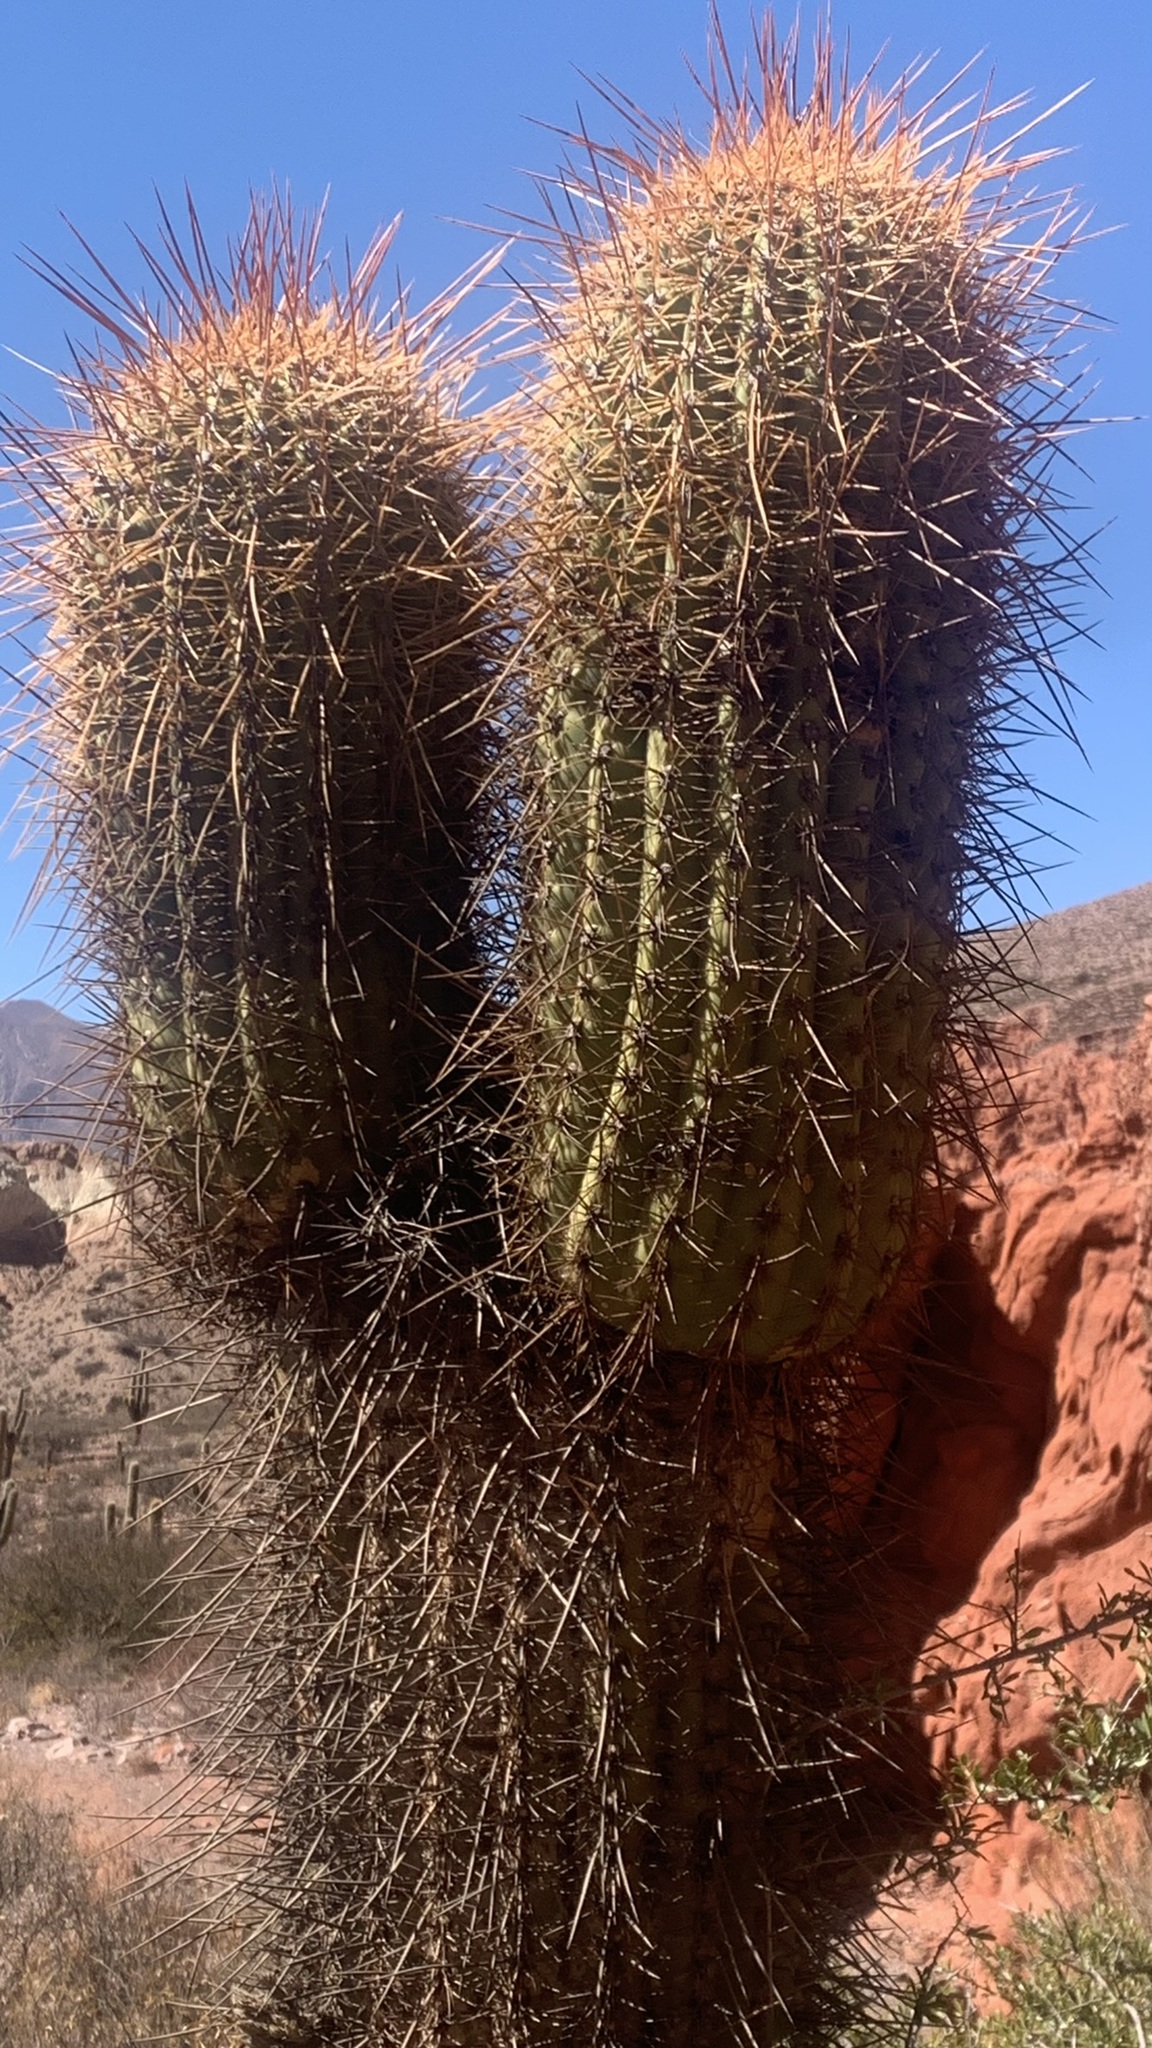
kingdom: Plantae
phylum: Tracheophyta
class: Magnoliopsida
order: Caryophyllales
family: Cactaceae
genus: Leucostele
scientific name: Leucostele atacamensis
